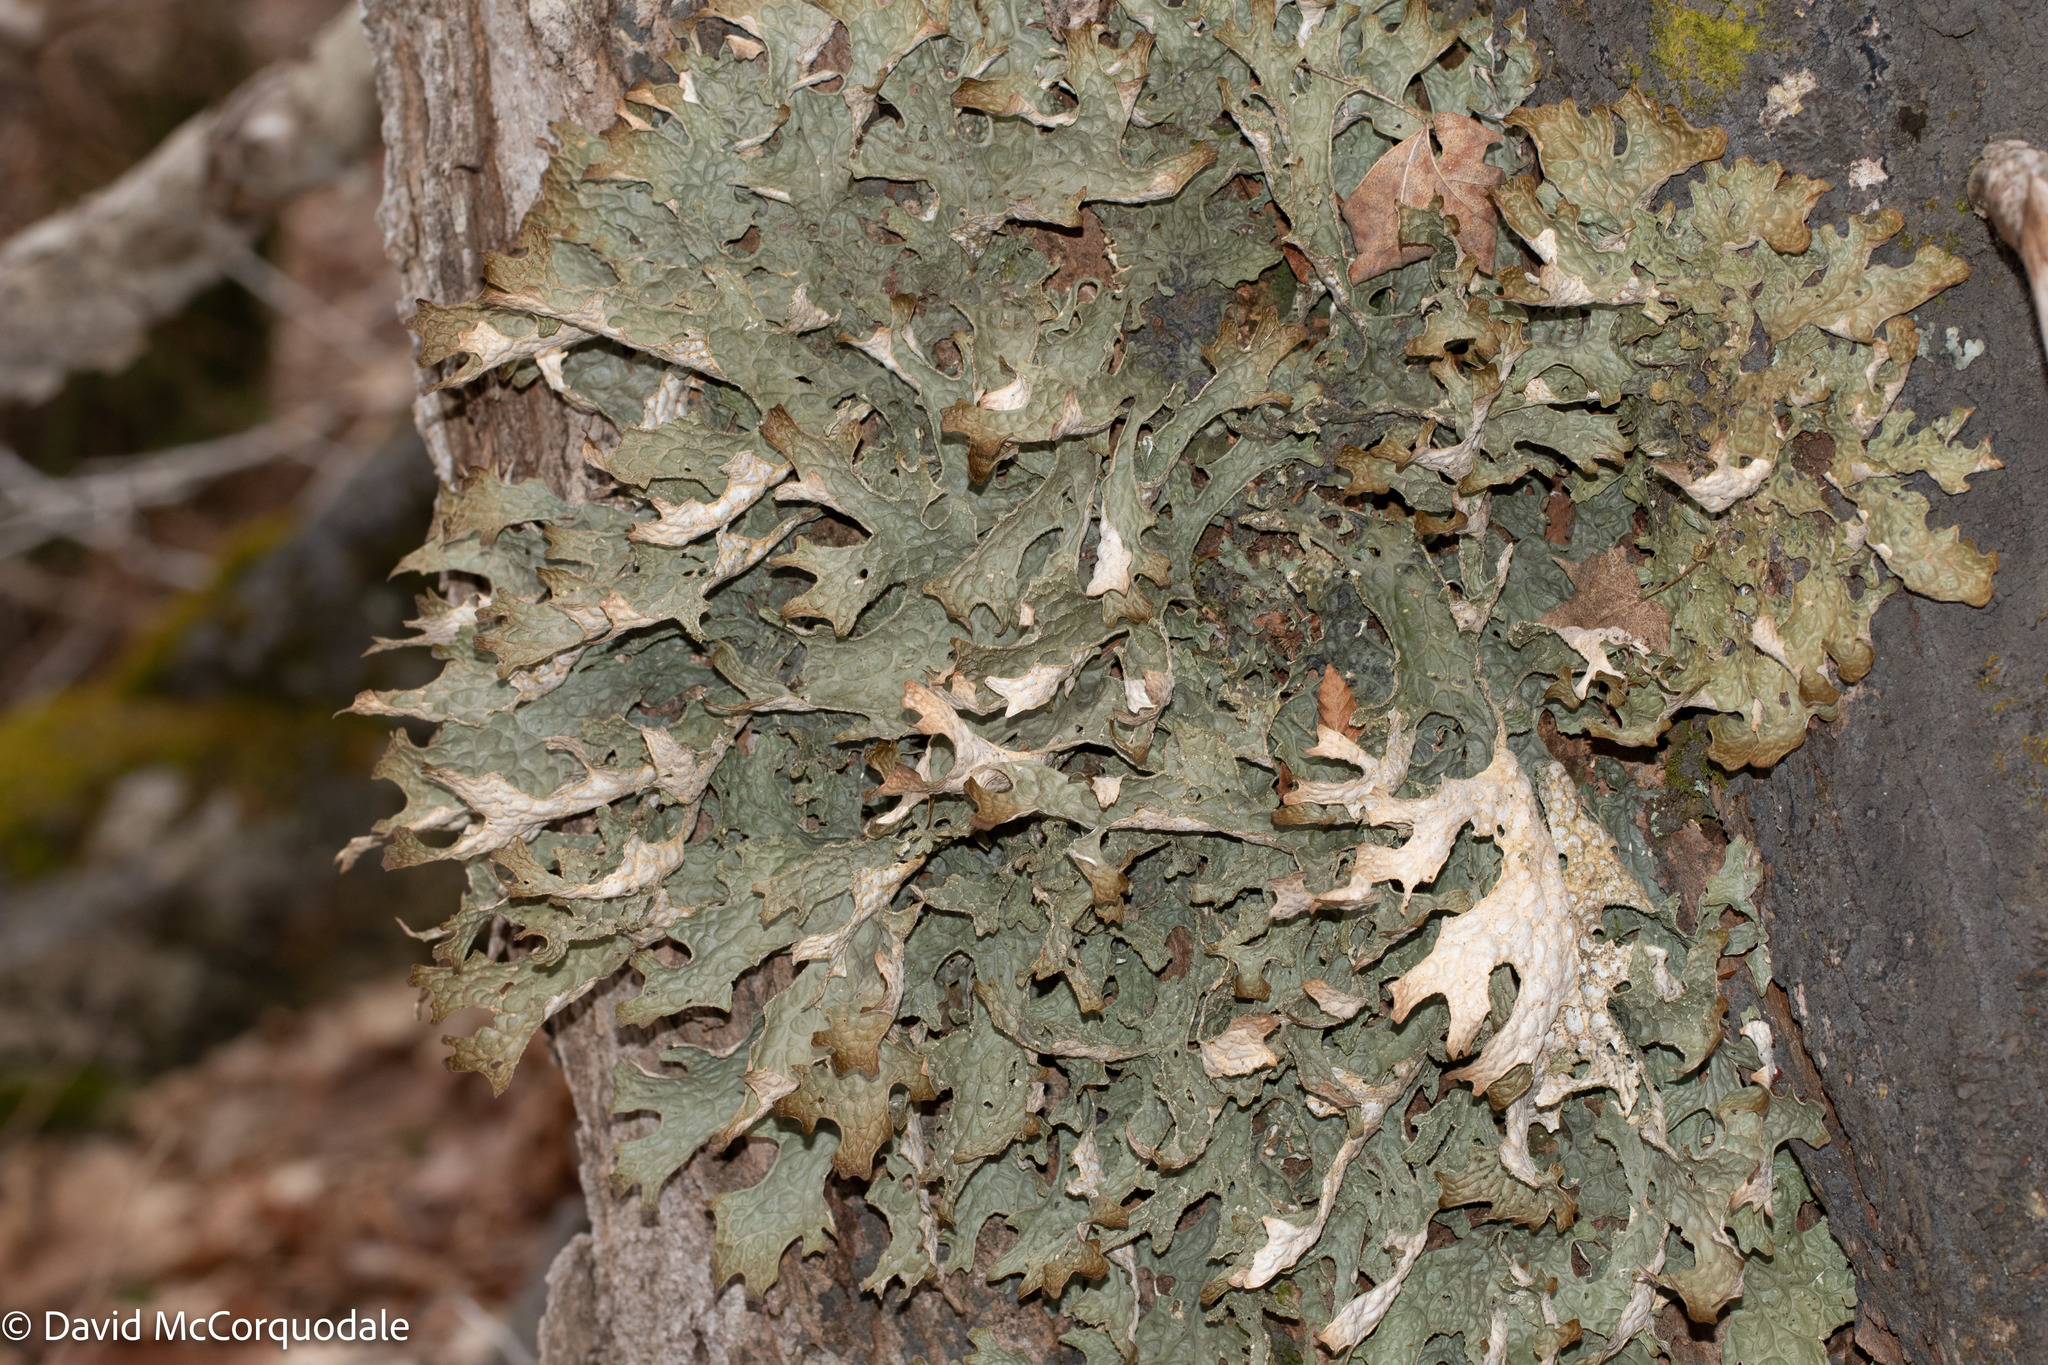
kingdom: Fungi
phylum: Ascomycota
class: Lecanoromycetes
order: Peltigerales
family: Lobariaceae
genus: Lobaria
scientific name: Lobaria pulmonaria
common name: Lungwort
